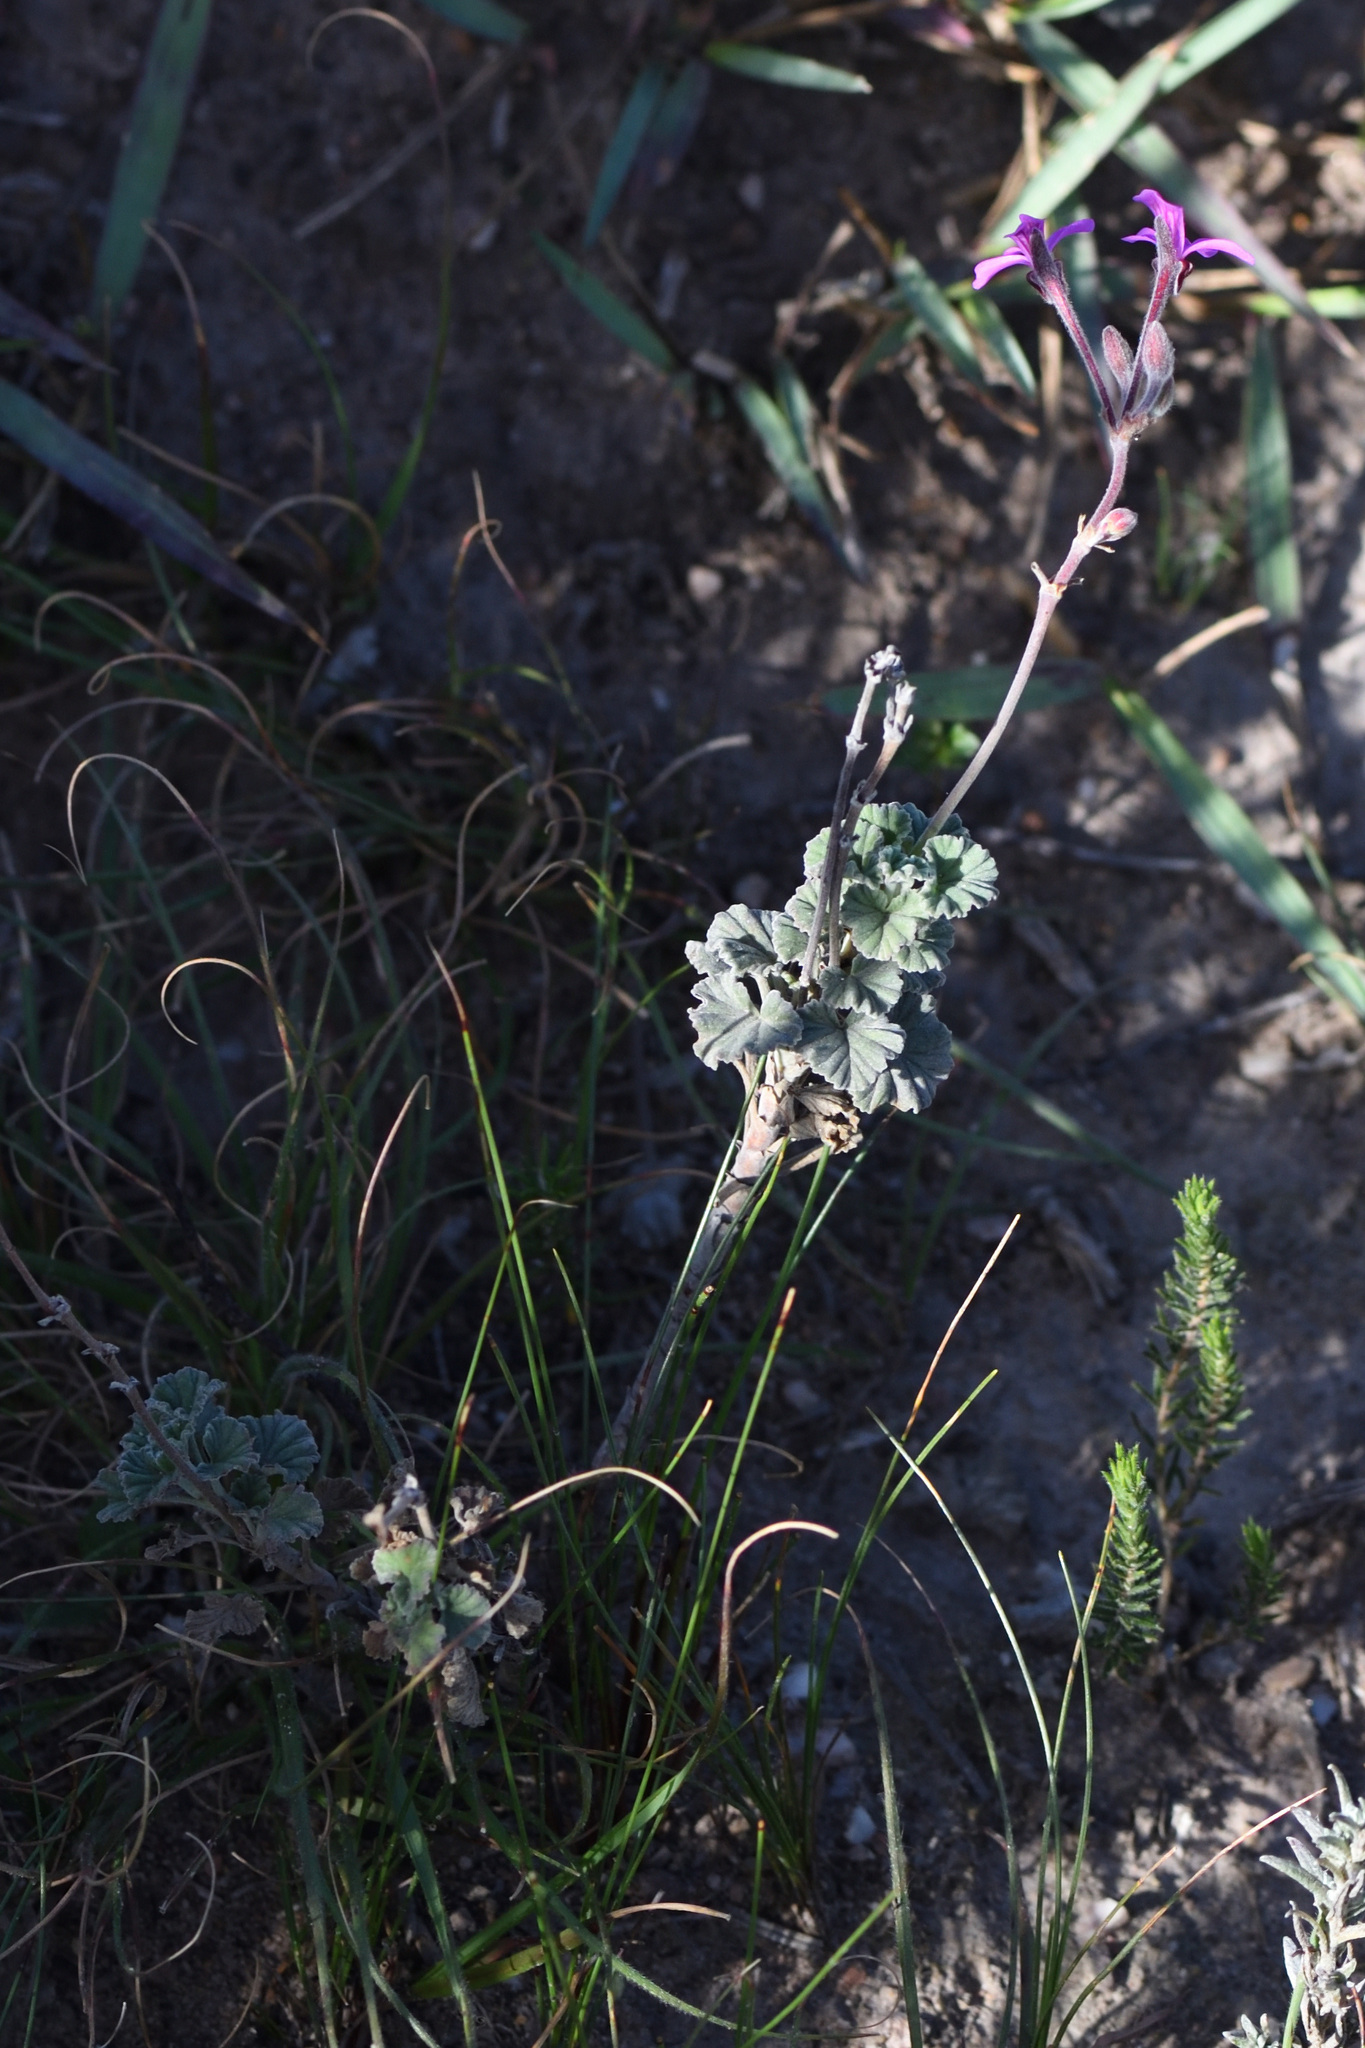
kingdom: Plantae
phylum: Tracheophyta
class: Magnoliopsida
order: Geraniales
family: Geraniaceae
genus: Pelargonium
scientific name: Pelargonium reniforme
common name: Kidney-leaf pelargonium
